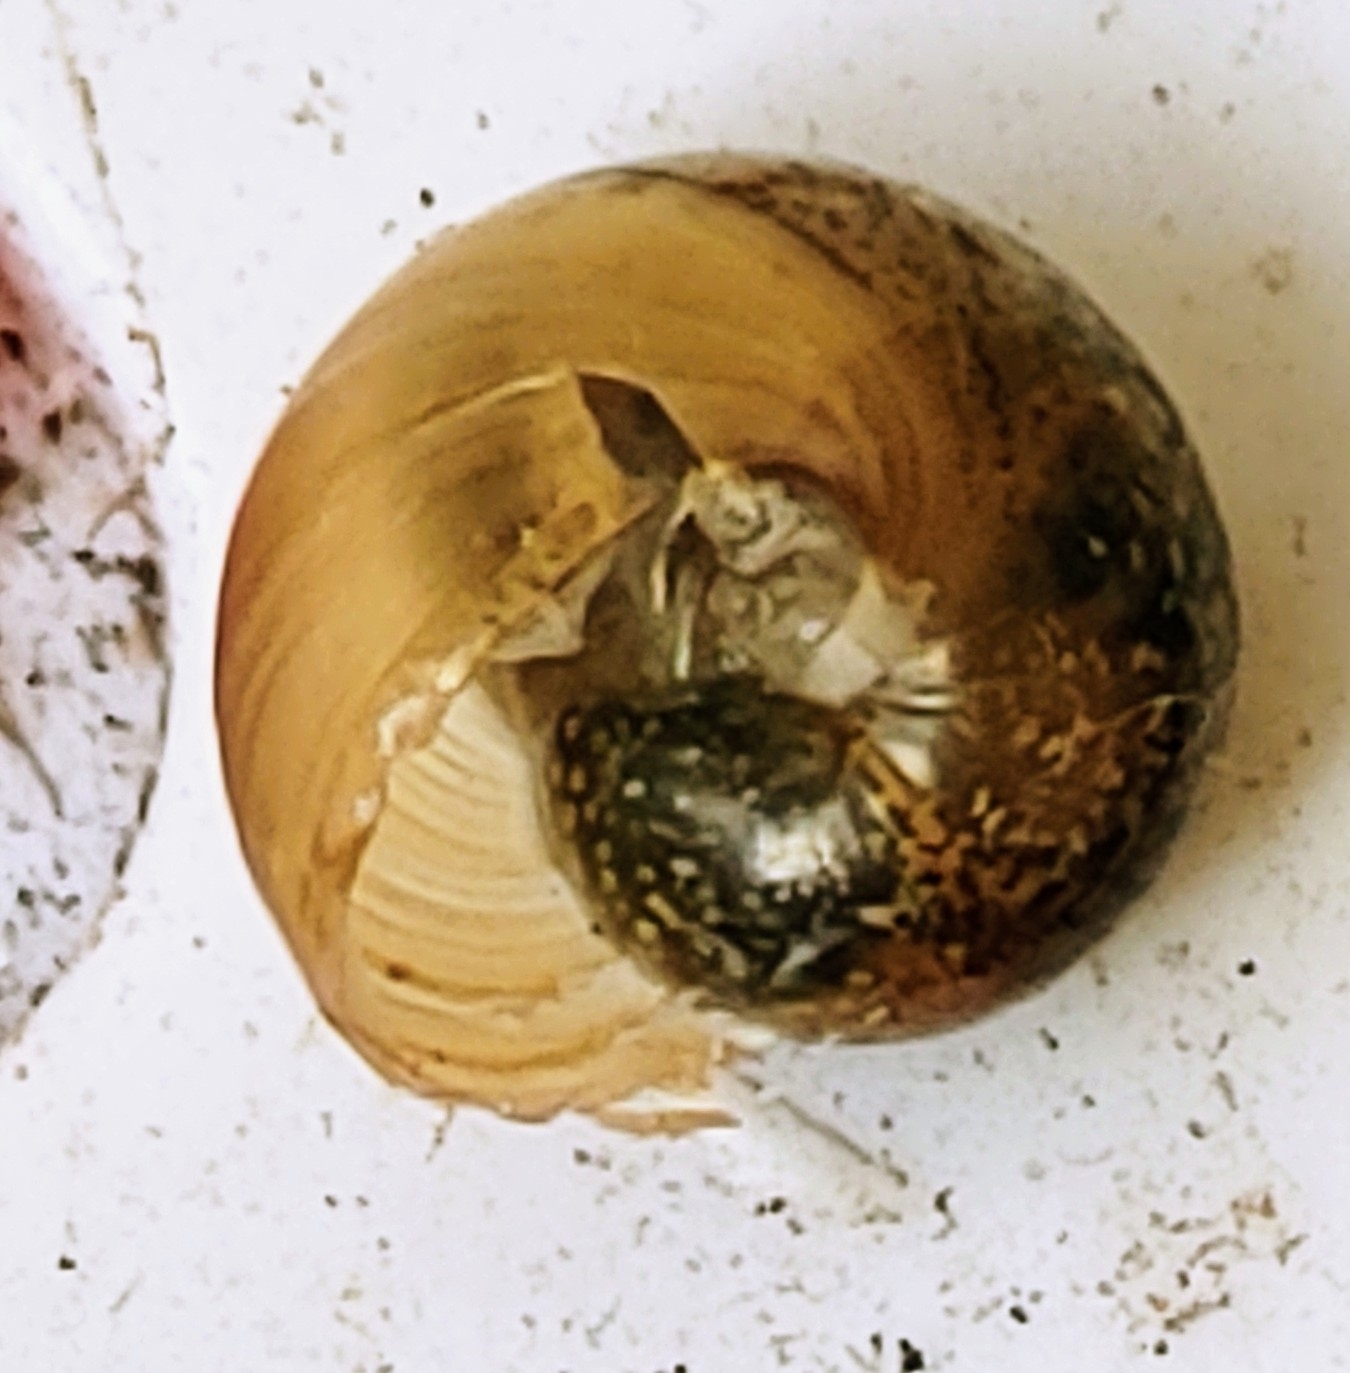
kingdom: Animalia
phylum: Mollusca
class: Gastropoda
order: Stylommatophora
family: Zachrysiidae
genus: Zachrysia
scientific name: Zachrysia provisoria
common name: Garden zachrysia
